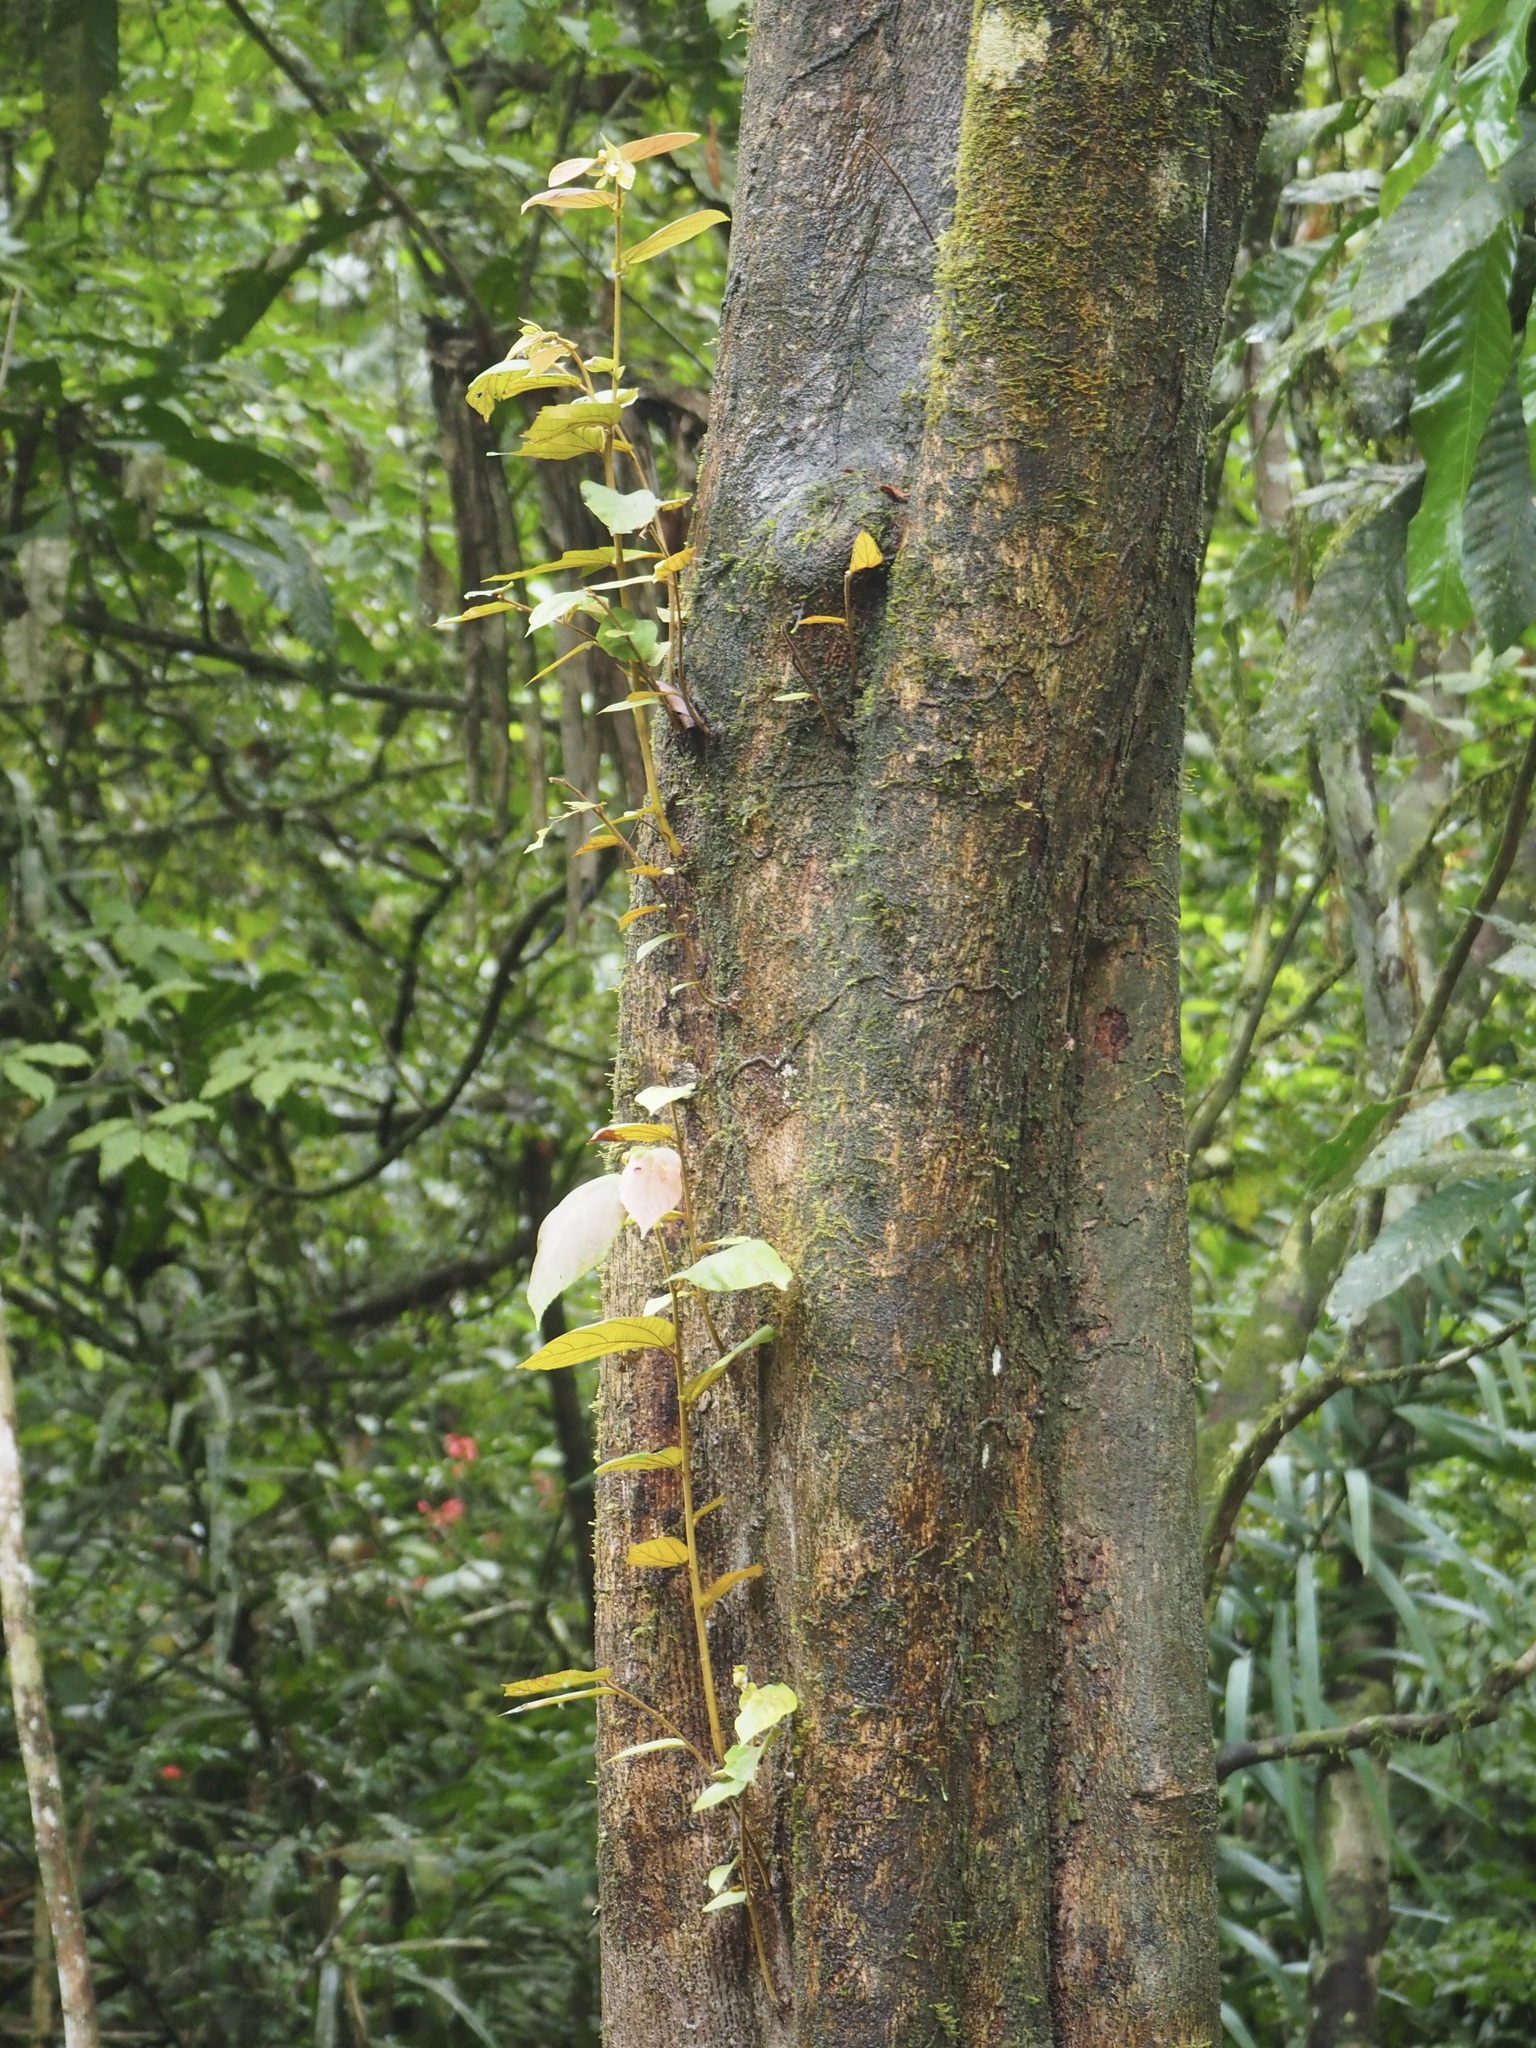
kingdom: Plantae
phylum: Tracheophyta
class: Magnoliopsida
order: Malvales
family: Malvaceae
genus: Luehea
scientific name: Luehea seemannii
